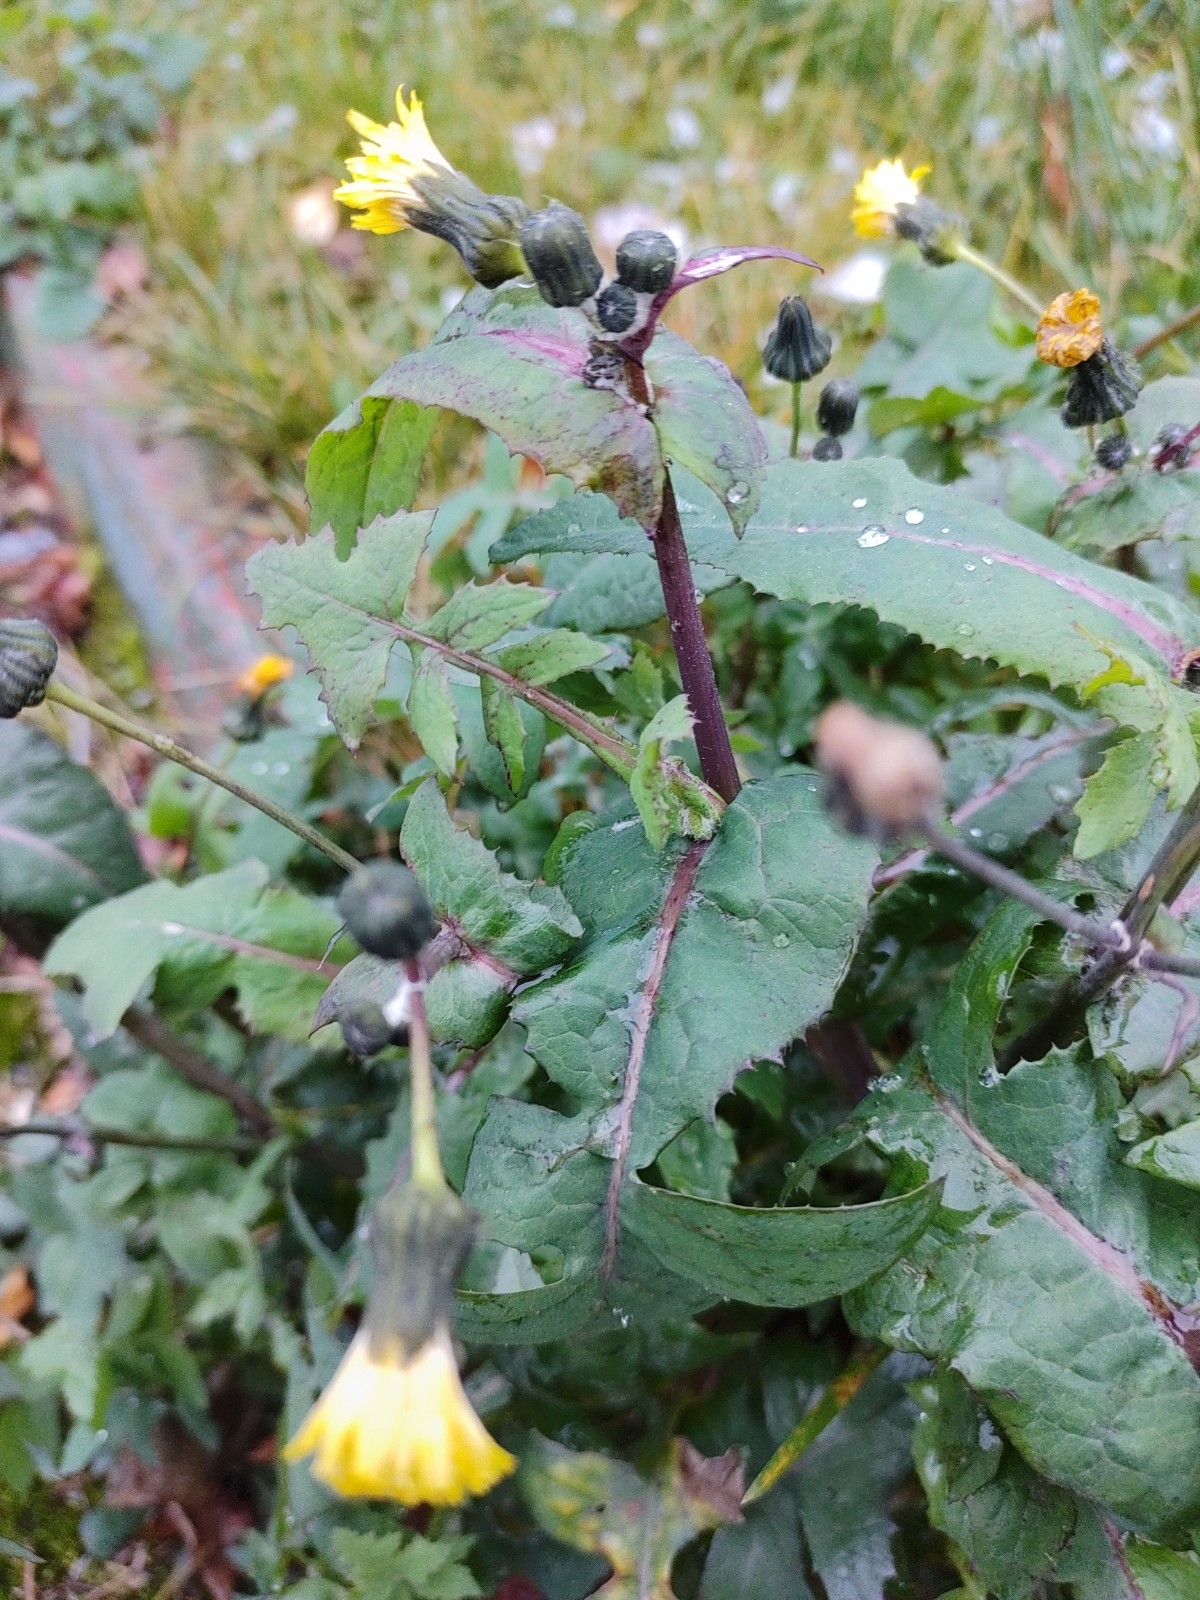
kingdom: Plantae
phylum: Tracheophyta
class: Magnoliopsida
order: Asterales
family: Asteraceae
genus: Sonchus
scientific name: Sonchus oleraceus
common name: Common sowthistle
